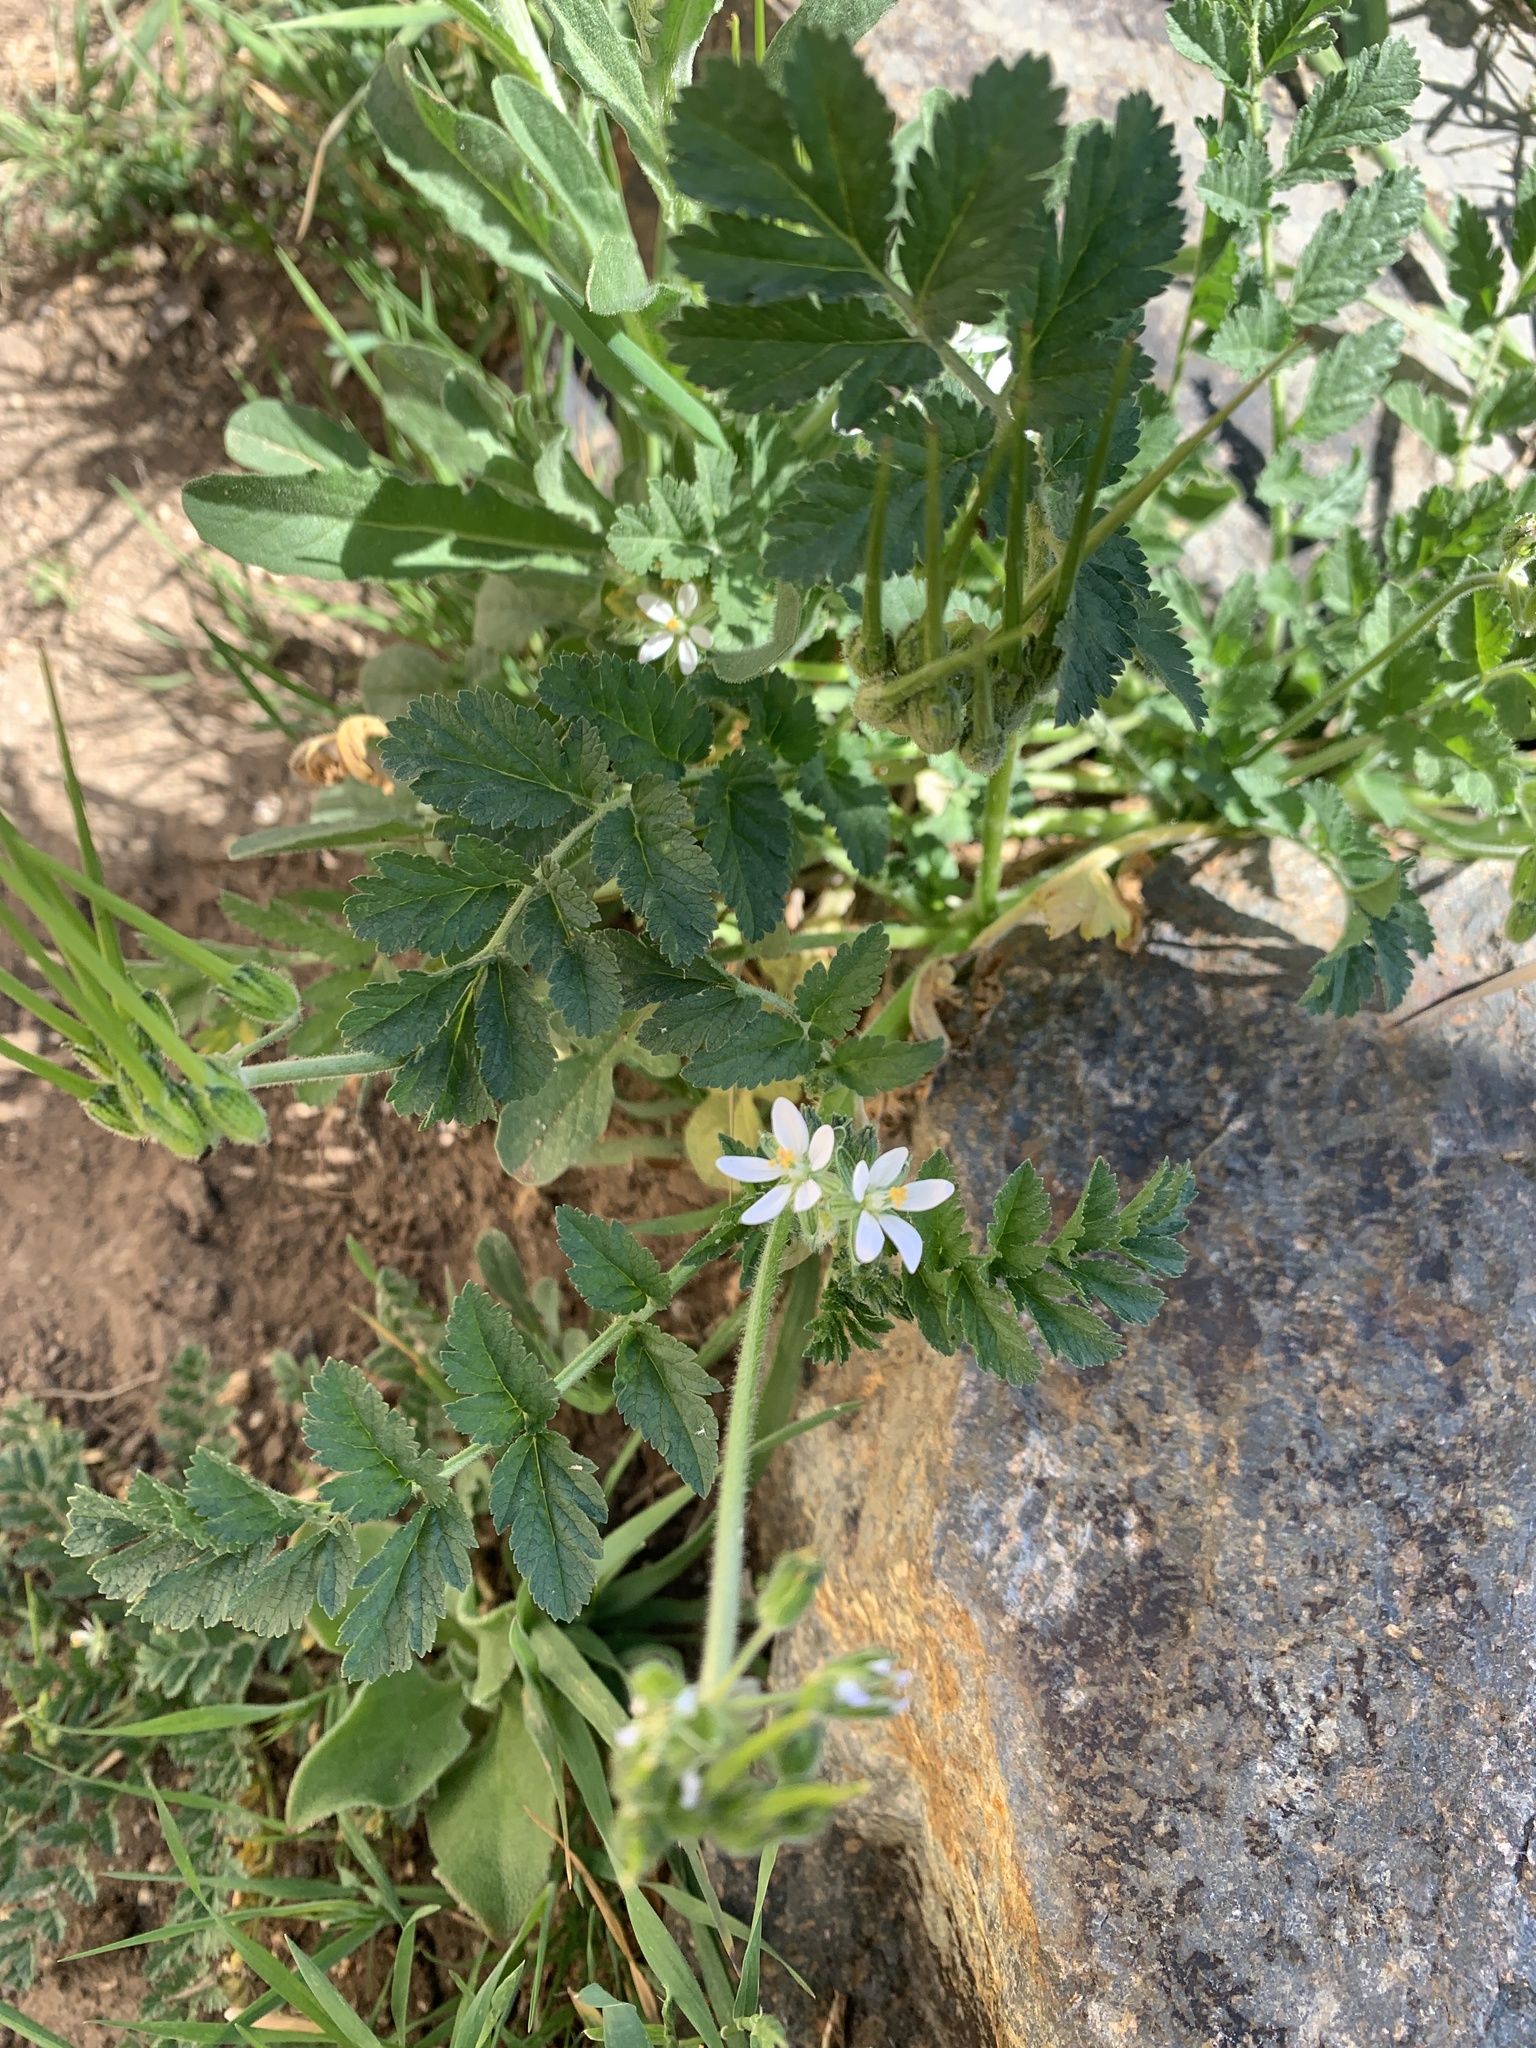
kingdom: Plantae
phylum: Tracheophyta
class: Magnoliopsida
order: Geraniales
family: Geraniaceae
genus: Erodium
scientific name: Erodium moschatum
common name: Musk stork's-bill
